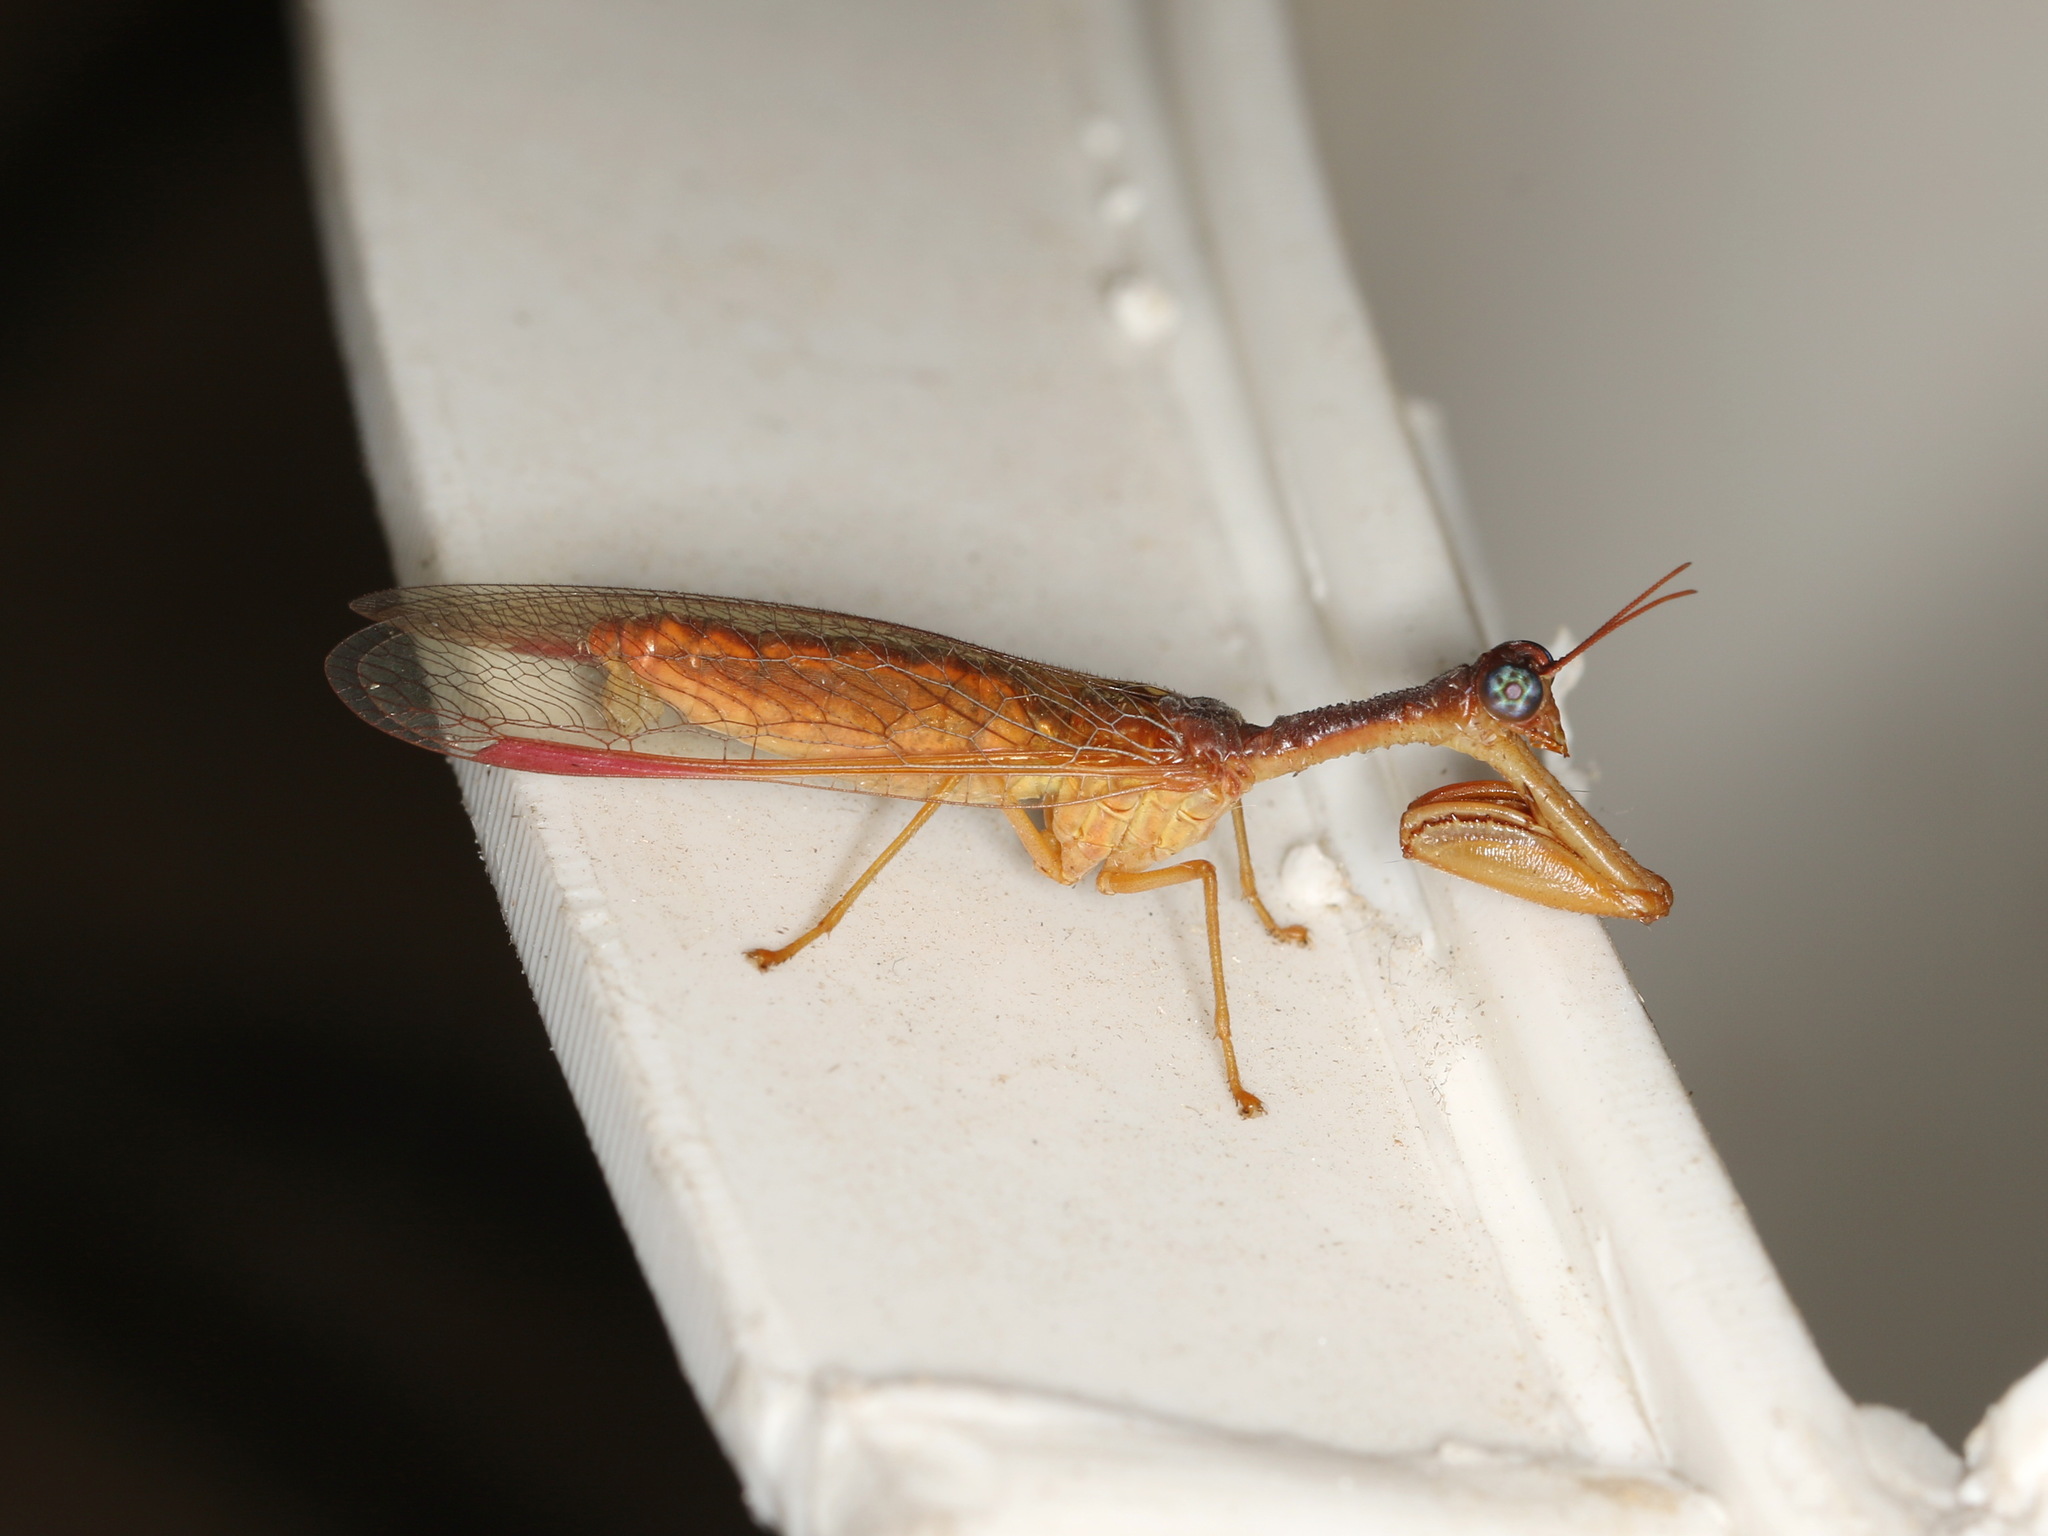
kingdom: Animalia
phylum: Arthropoda
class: Insecta
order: Neuroptera
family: Mantispidae
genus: Campion
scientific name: Campion rubellus
